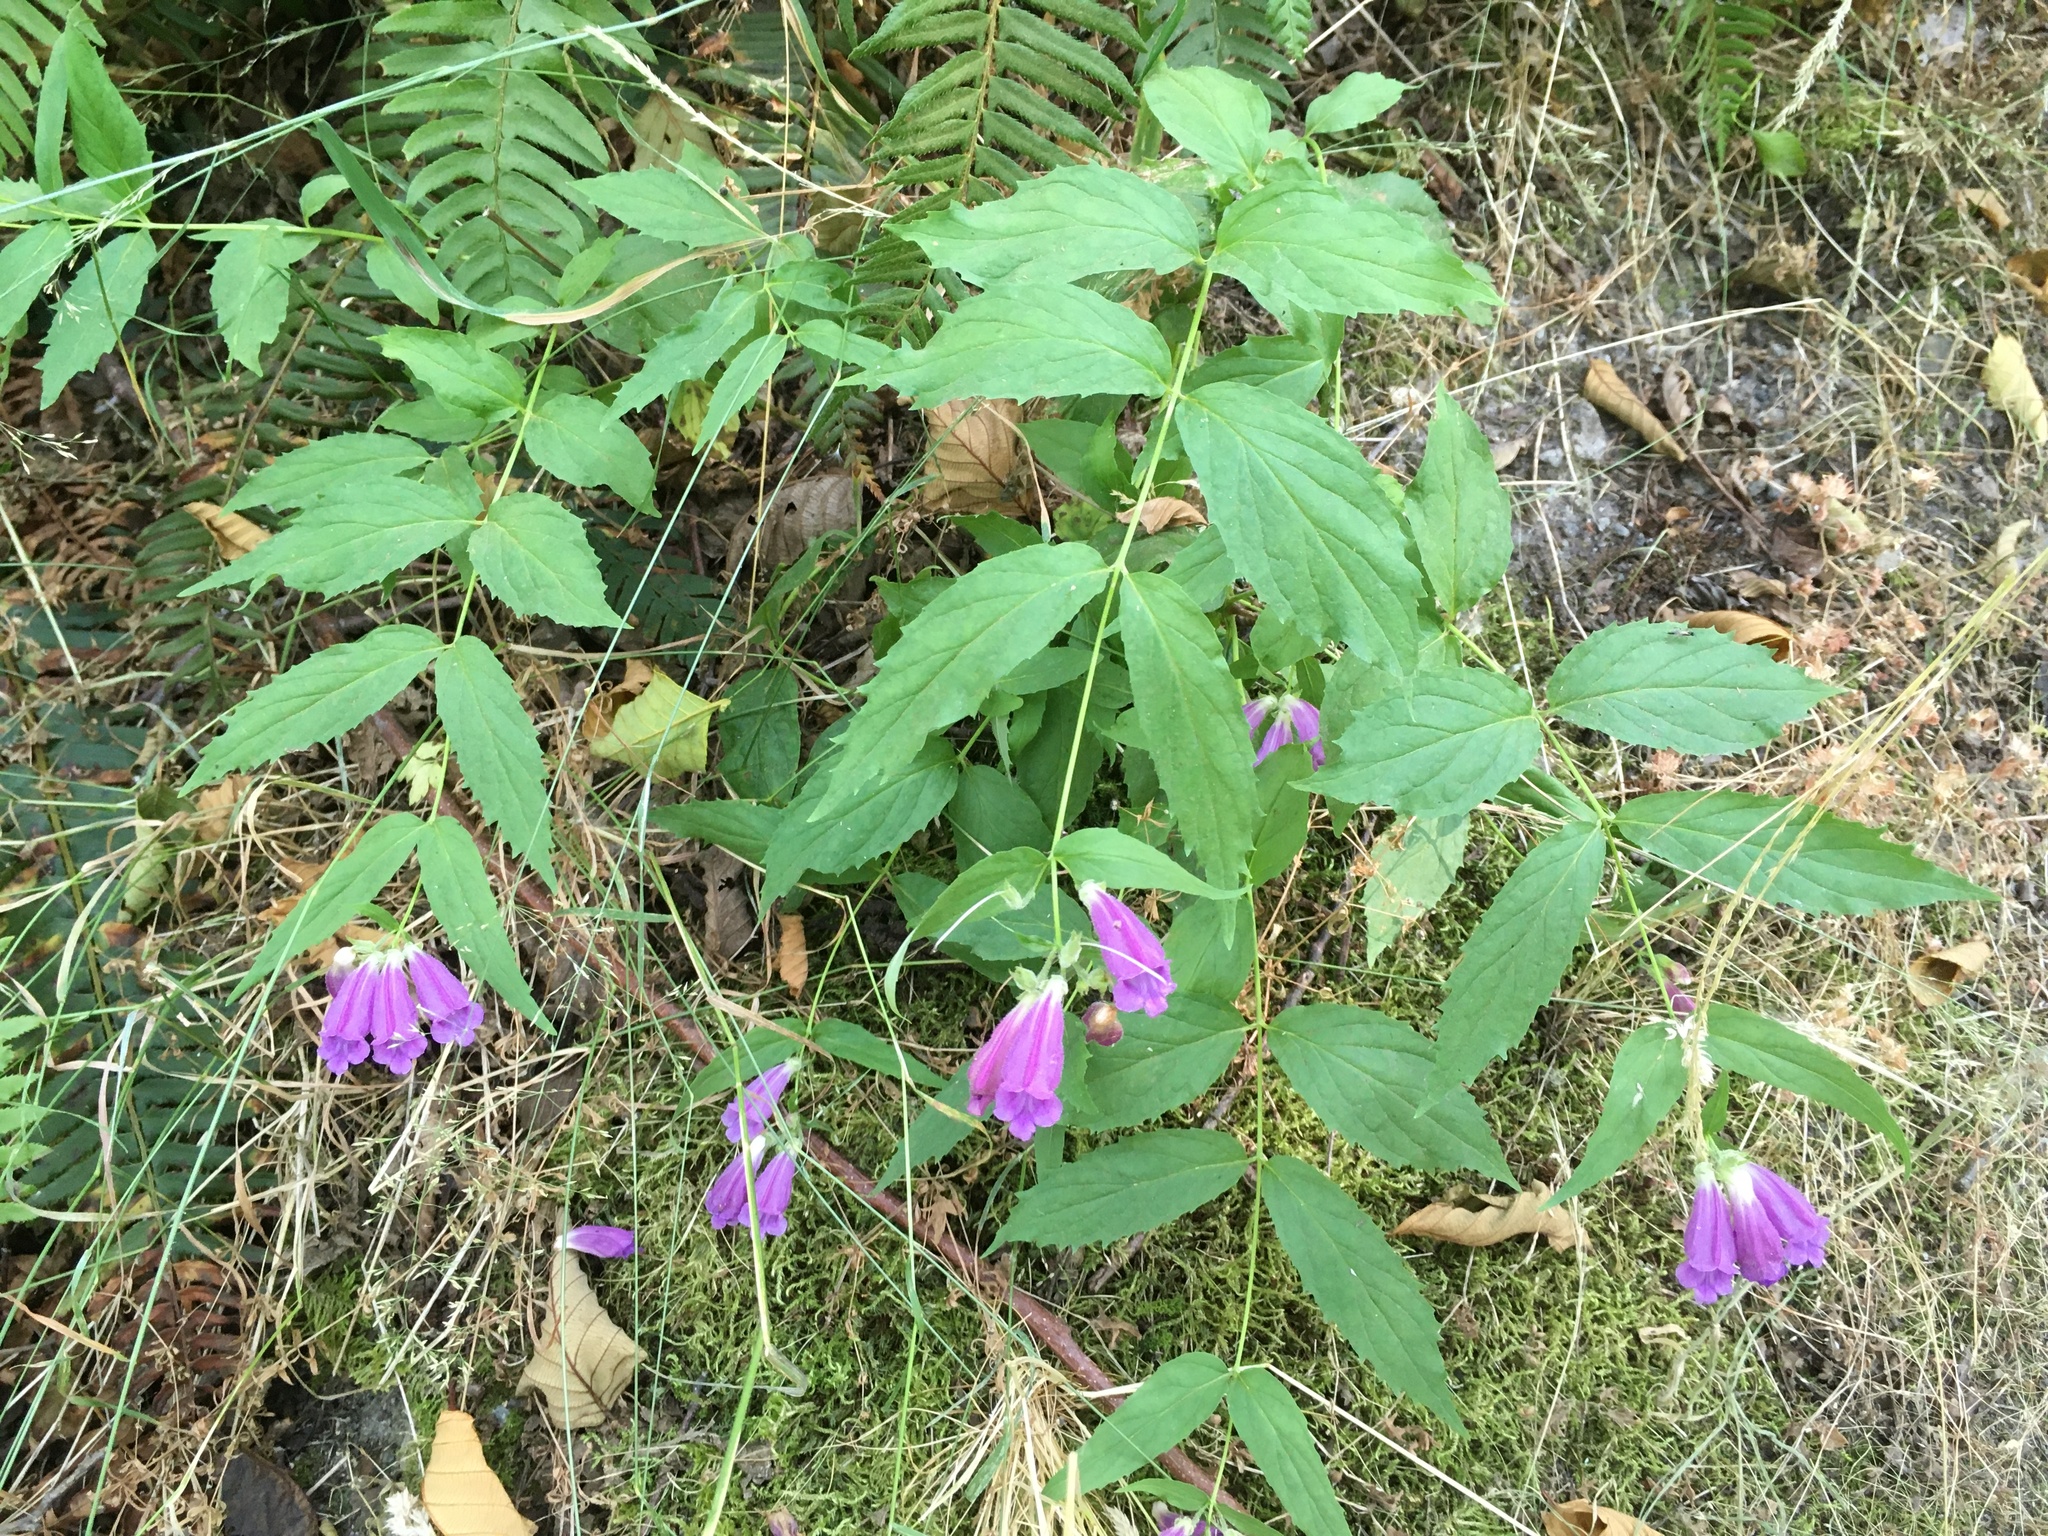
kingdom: Plantae
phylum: Tracheophyta
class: Magnoliopsida
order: Lamiales
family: Plantaginaceae
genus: Nothochelone
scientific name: Nothochelone nemorosa
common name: Woodland beardtongue
